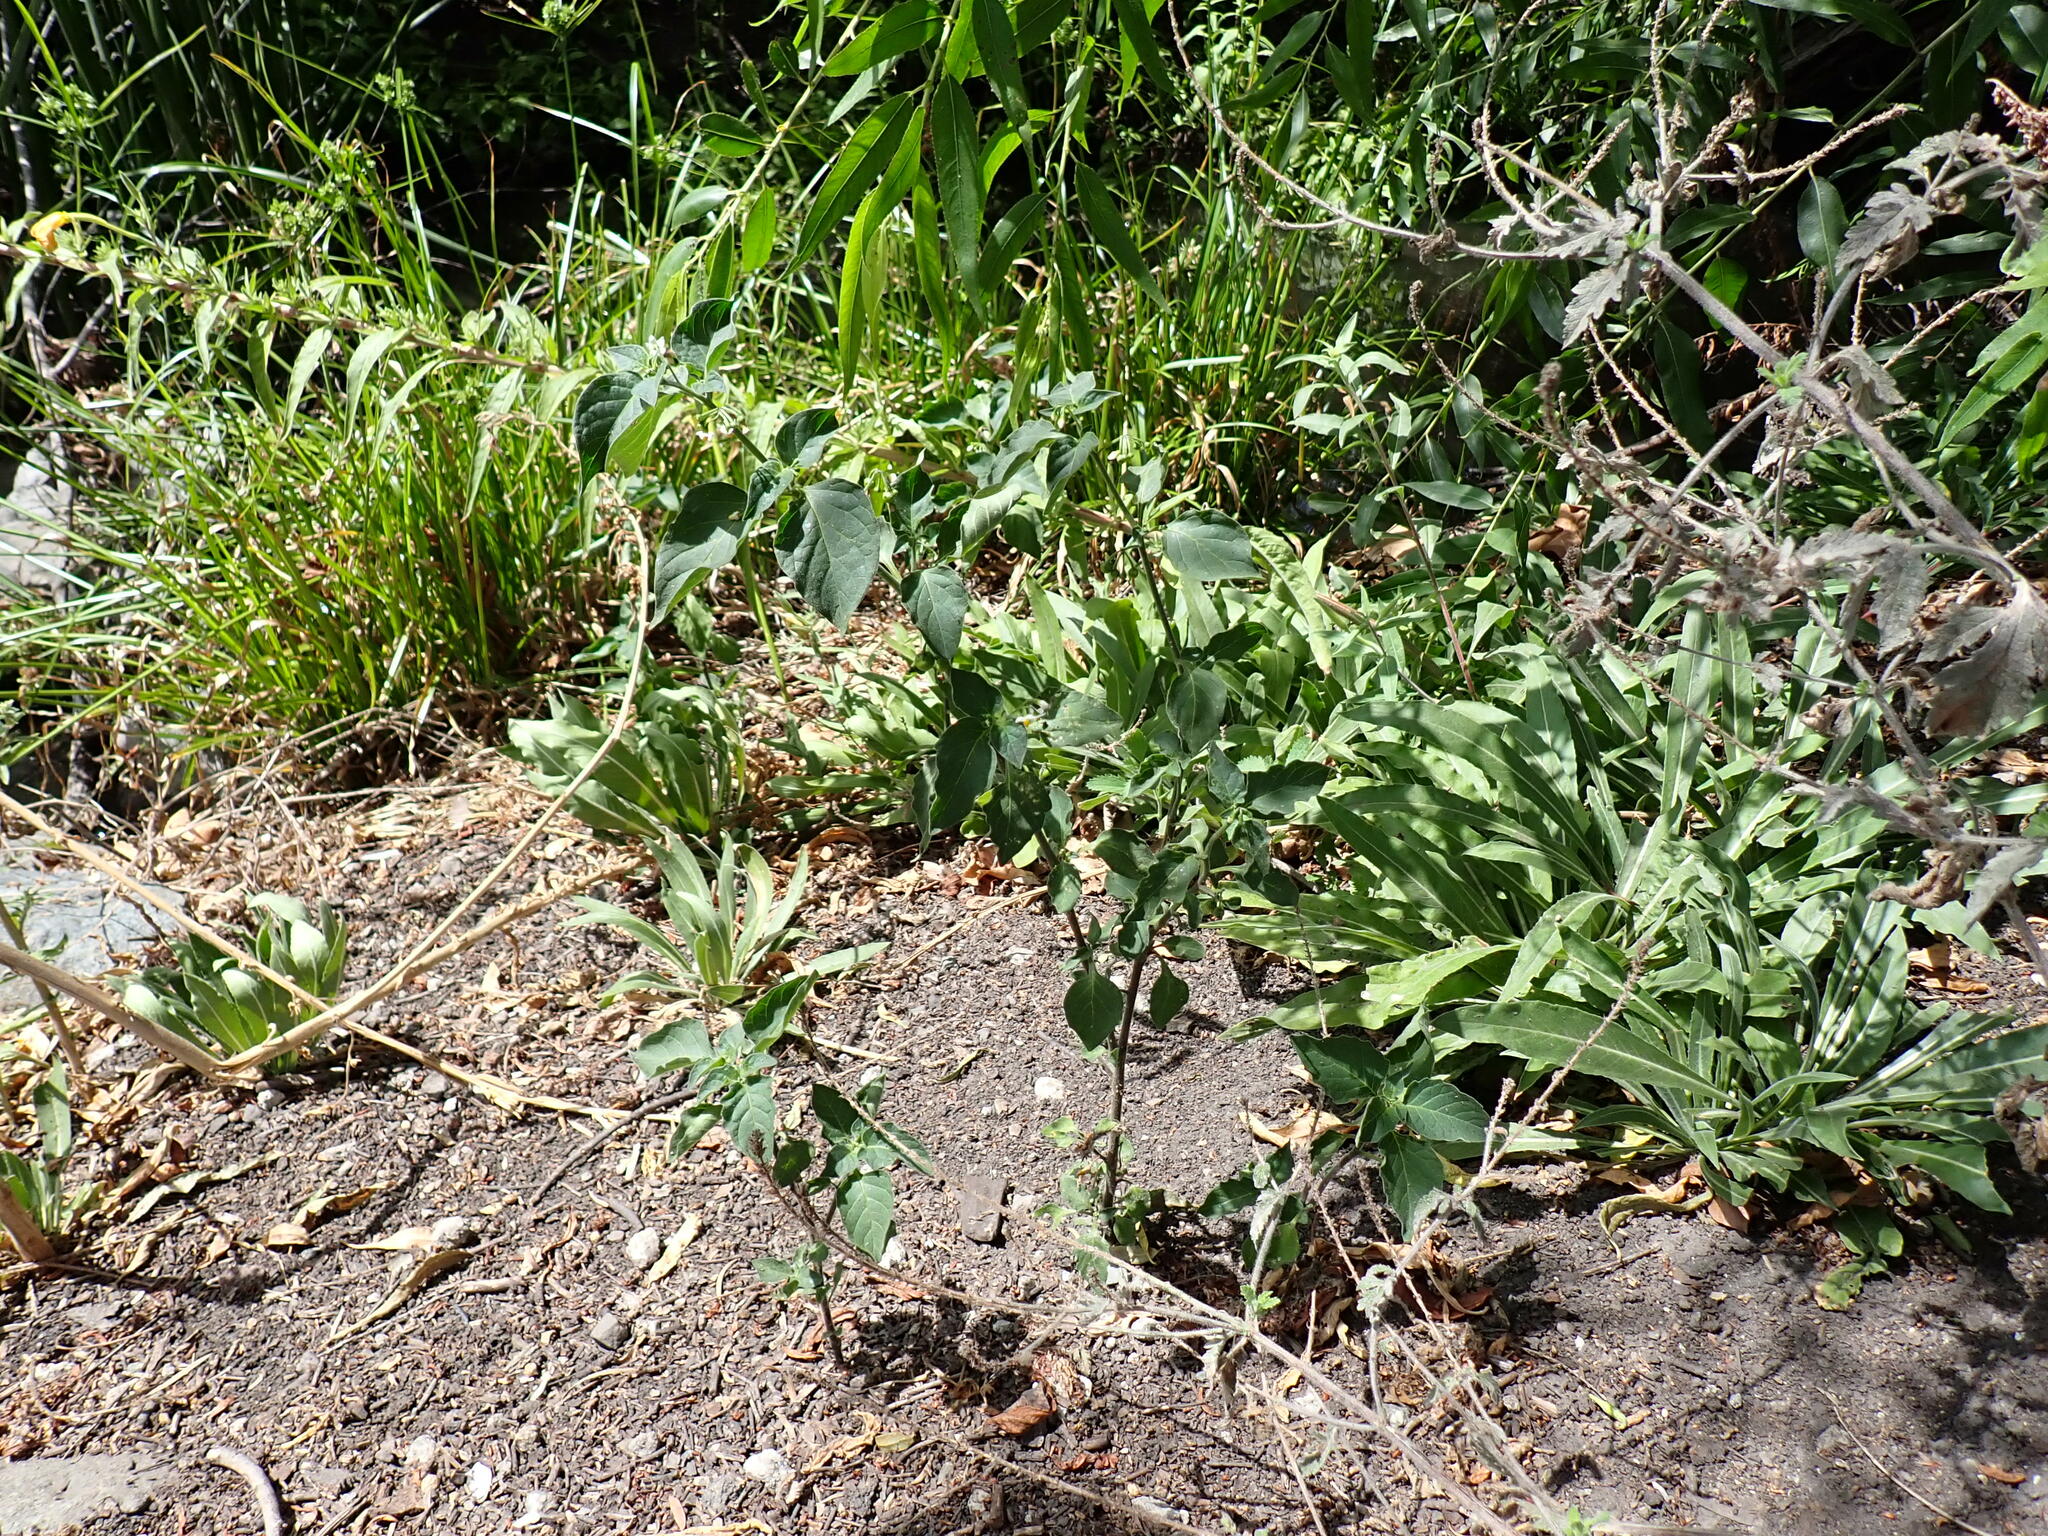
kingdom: Plantae
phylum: Tracheophyta
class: Magnoliopsida
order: Solanales
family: Solanaceae
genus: Solanum
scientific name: Solanum douglasii
